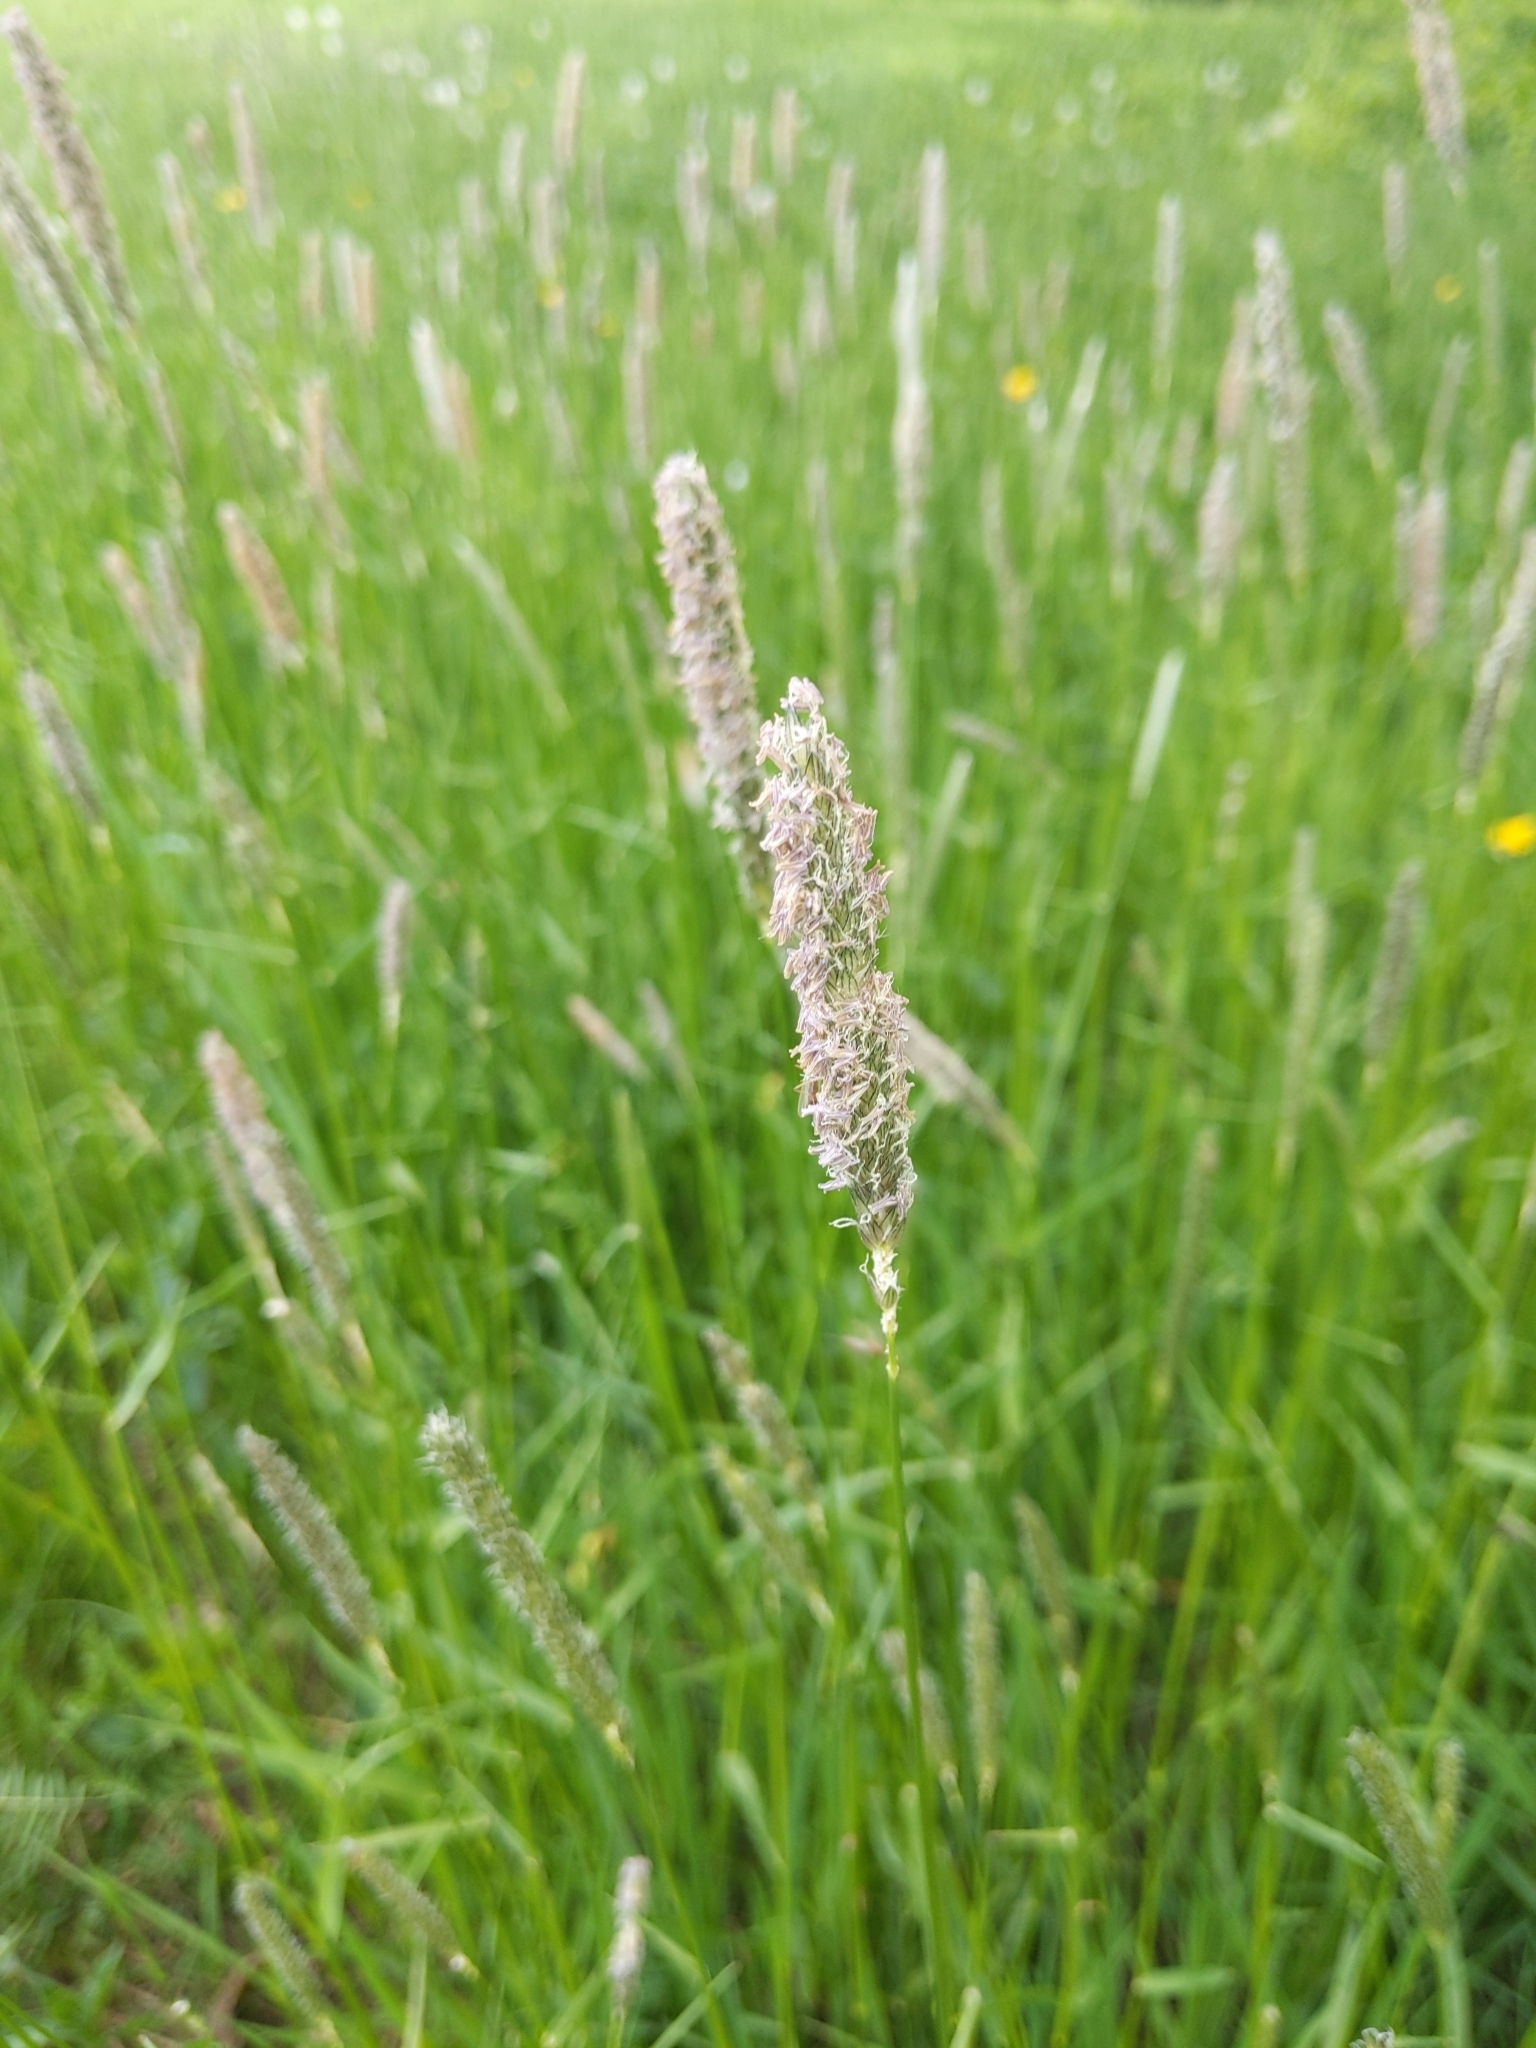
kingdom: Plantae
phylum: Tracheophyta
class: Liliopsida
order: Poales
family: Poaceae
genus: Alopecurus
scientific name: Alopecurus pratensis
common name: Meadow foxtail
